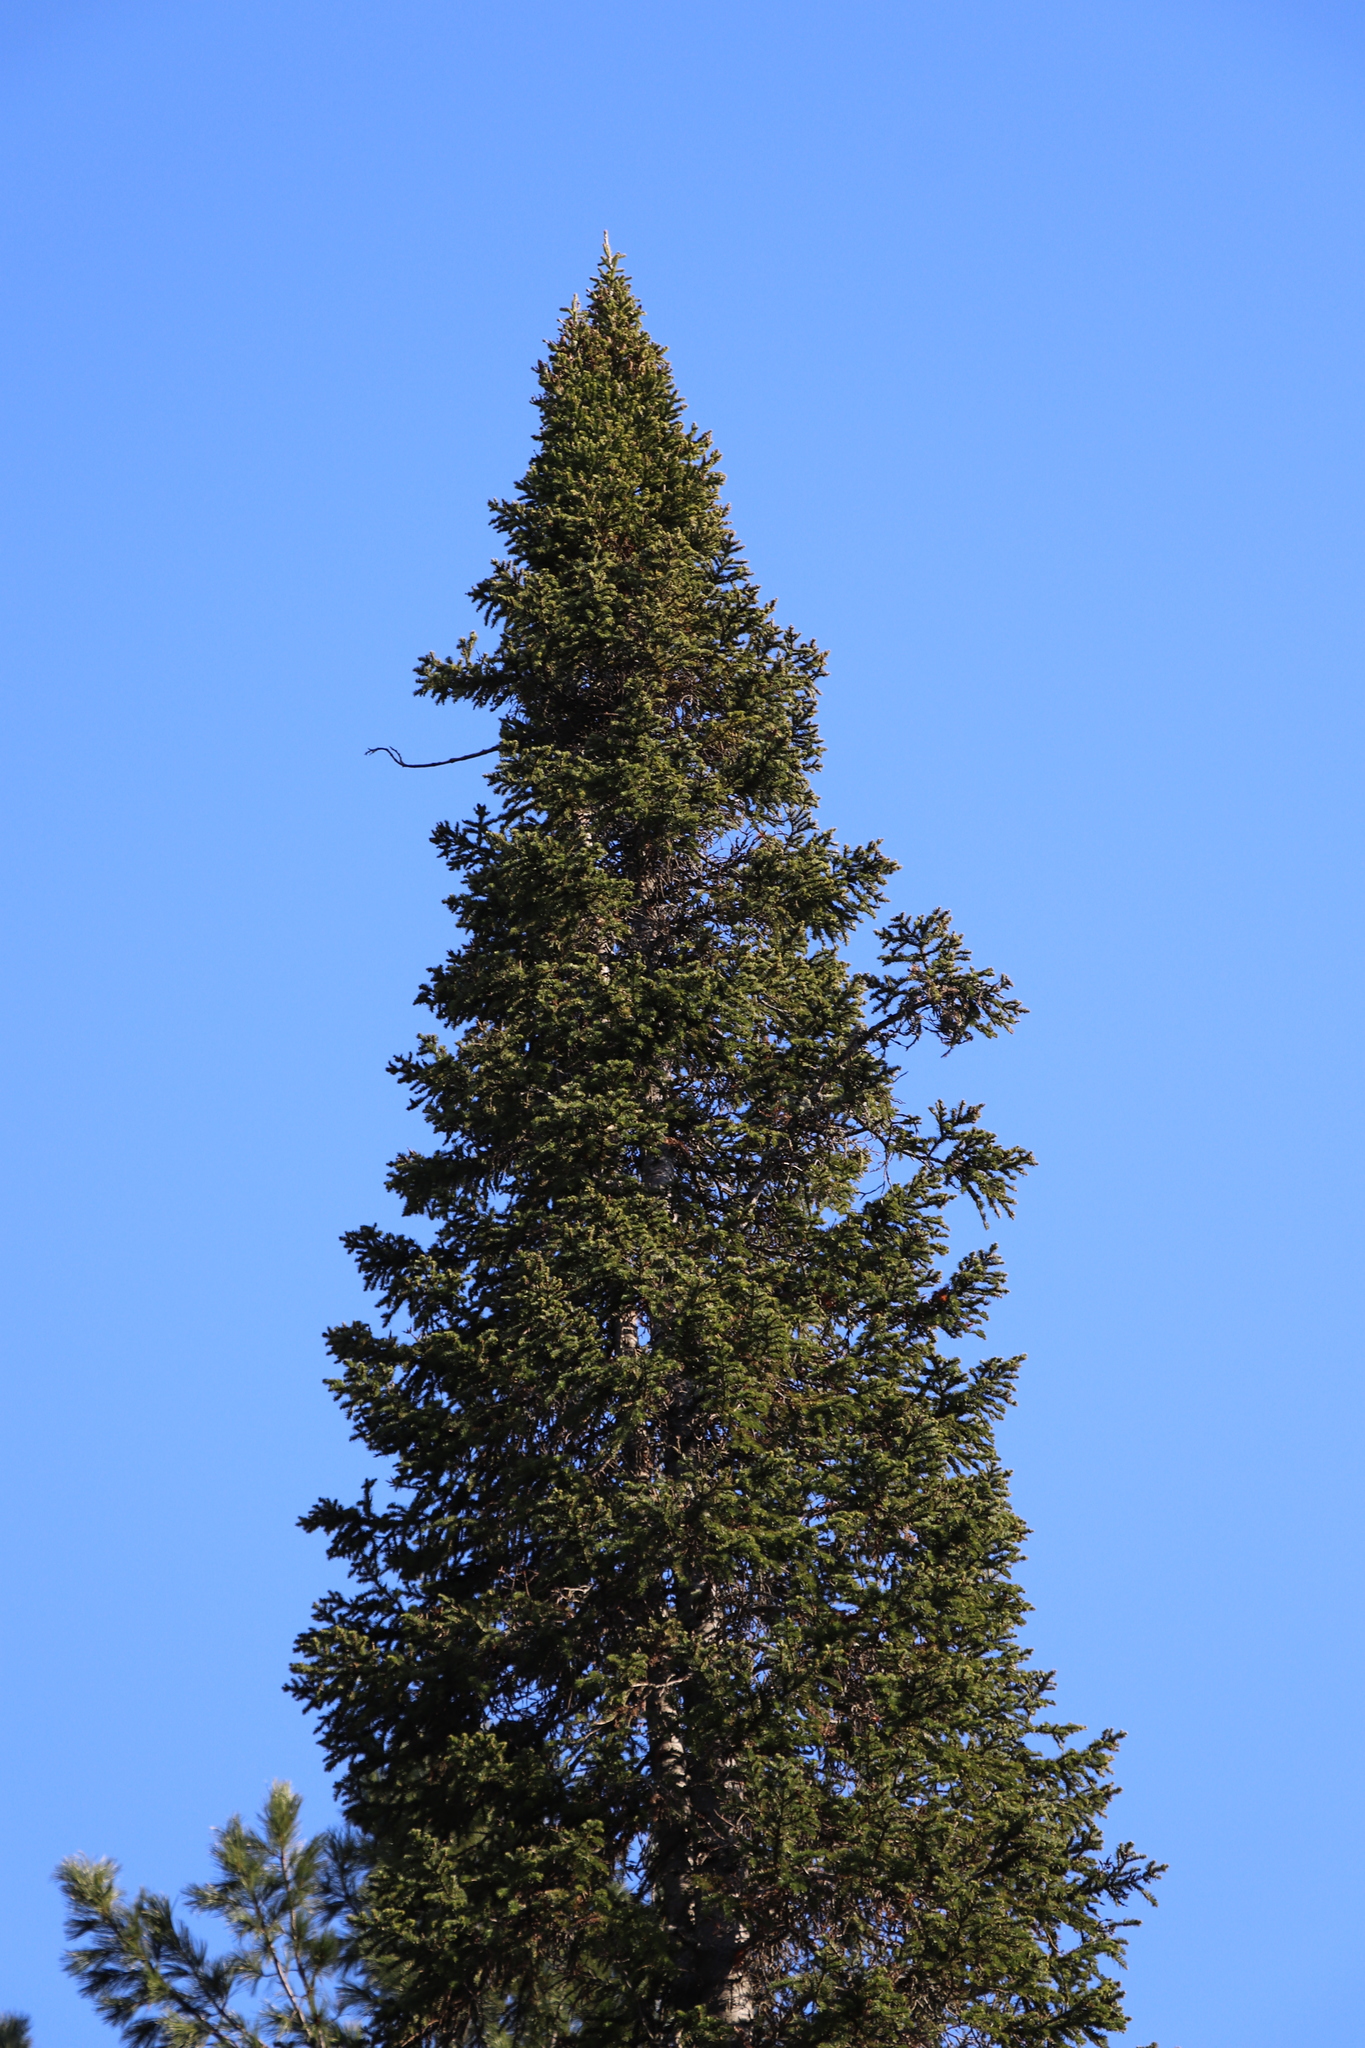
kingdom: Plantae
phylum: Tracheophyta
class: Pinopsida
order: Pinales
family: Pinaceae
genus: Abies
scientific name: Abies sibirica
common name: Siberian fir
